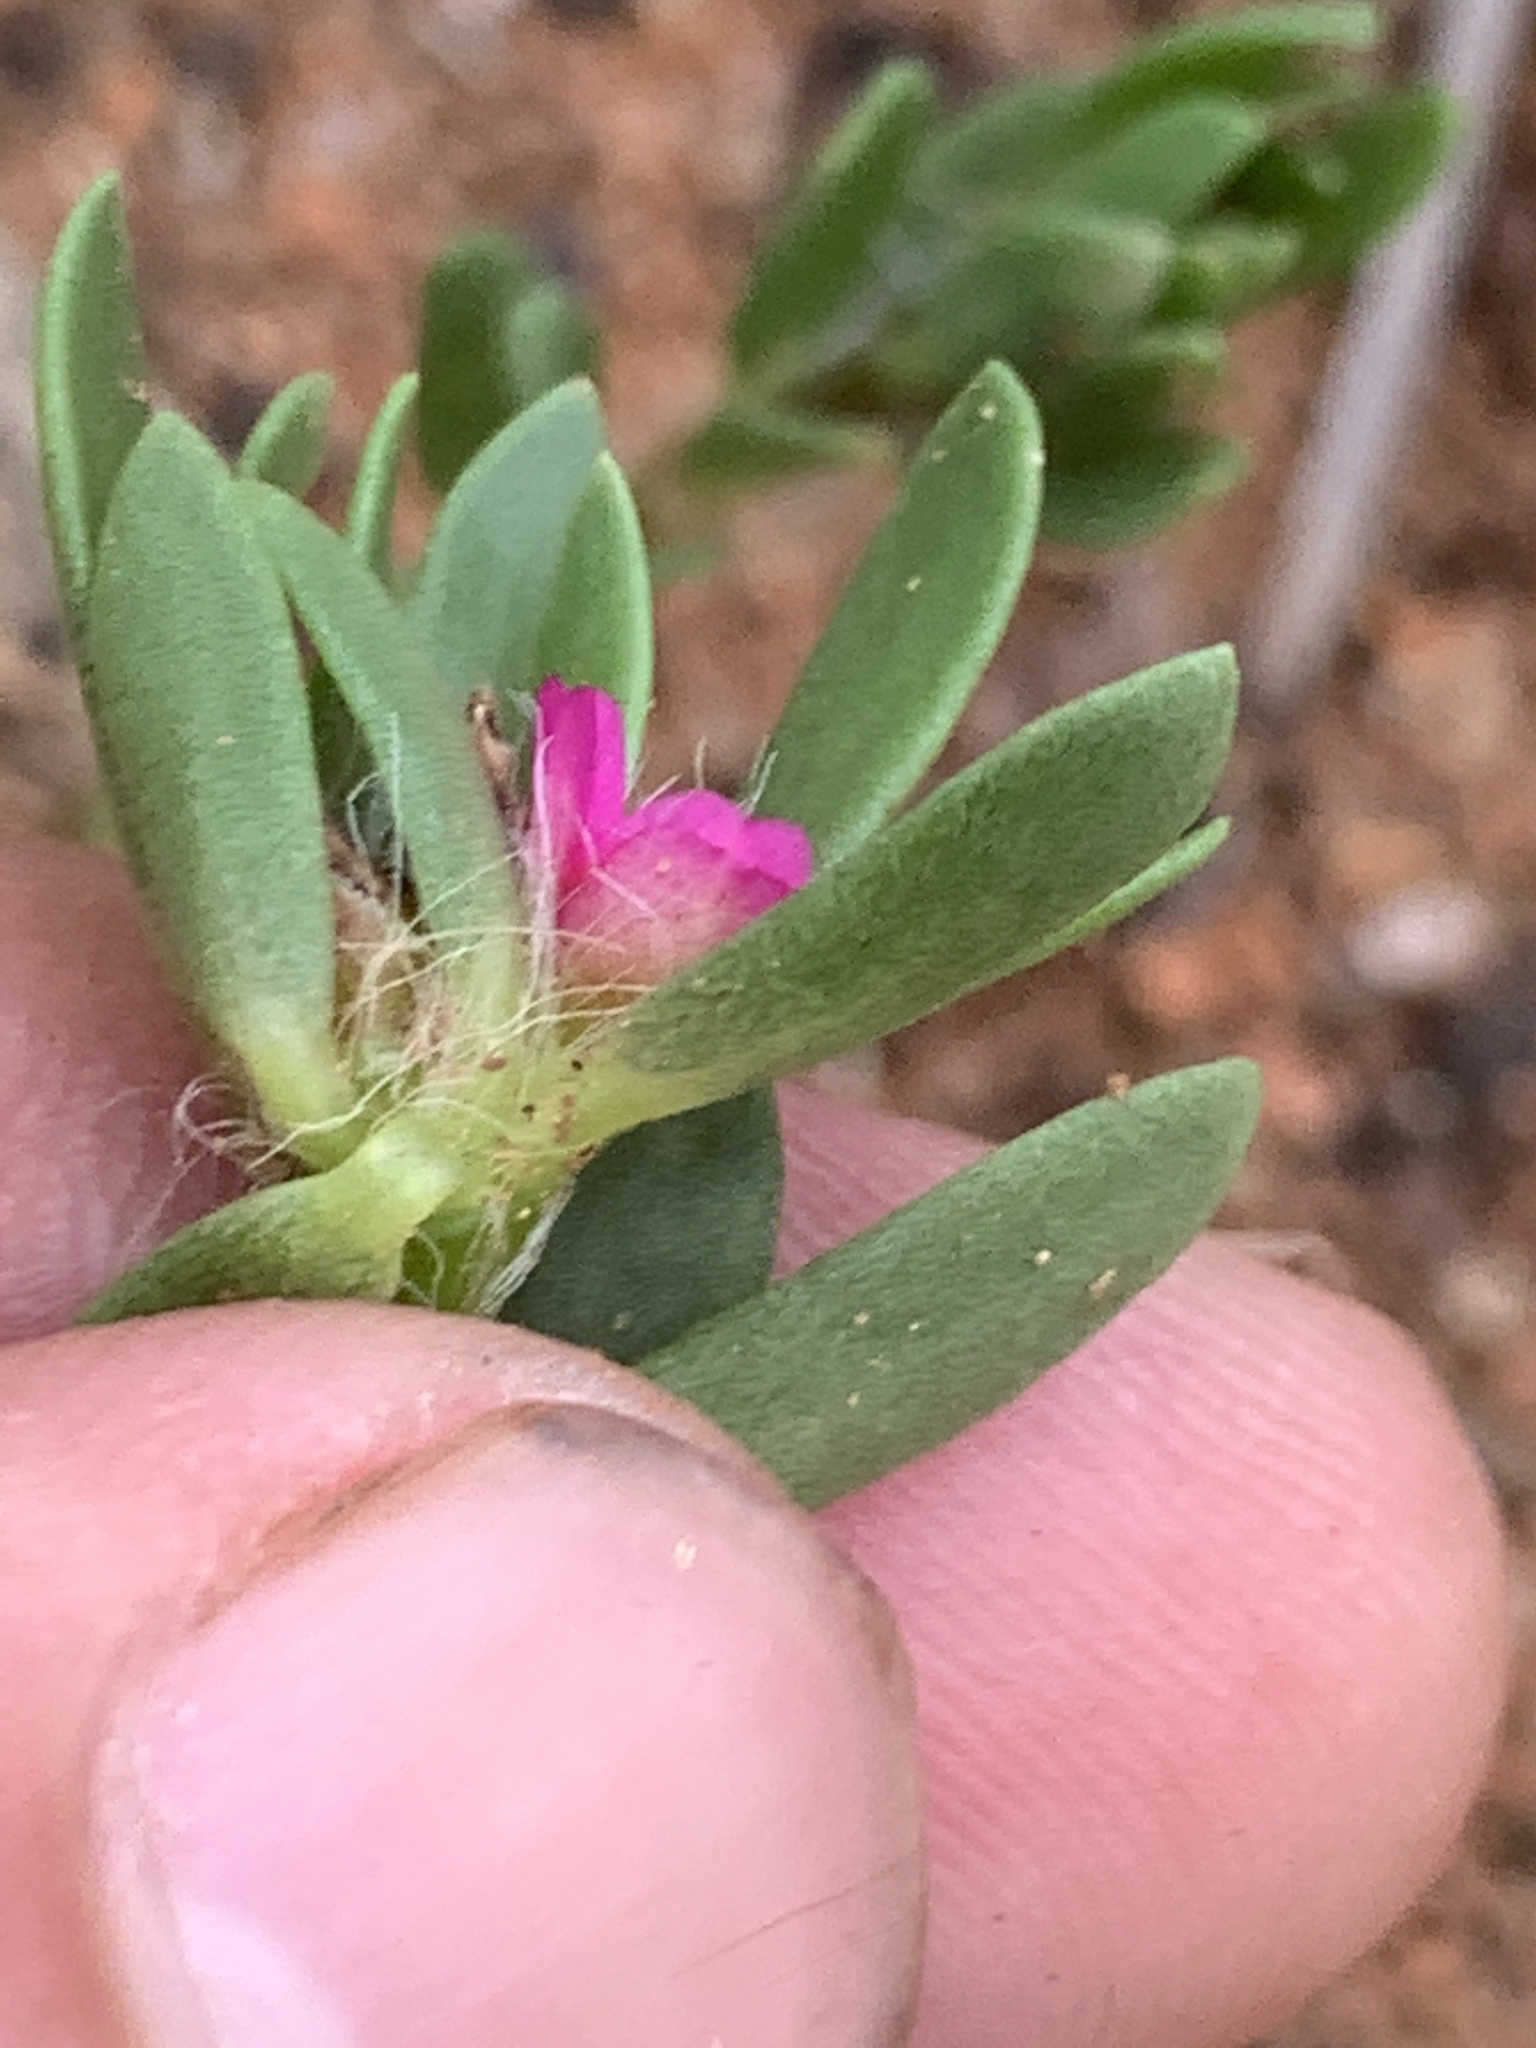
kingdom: Plantae
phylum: Tracheophyta
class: Magnoliopsida
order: Caryophyllales
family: Portulacaceae
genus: Portulaca
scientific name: Portulaca amilis
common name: Paraguayan purslane
